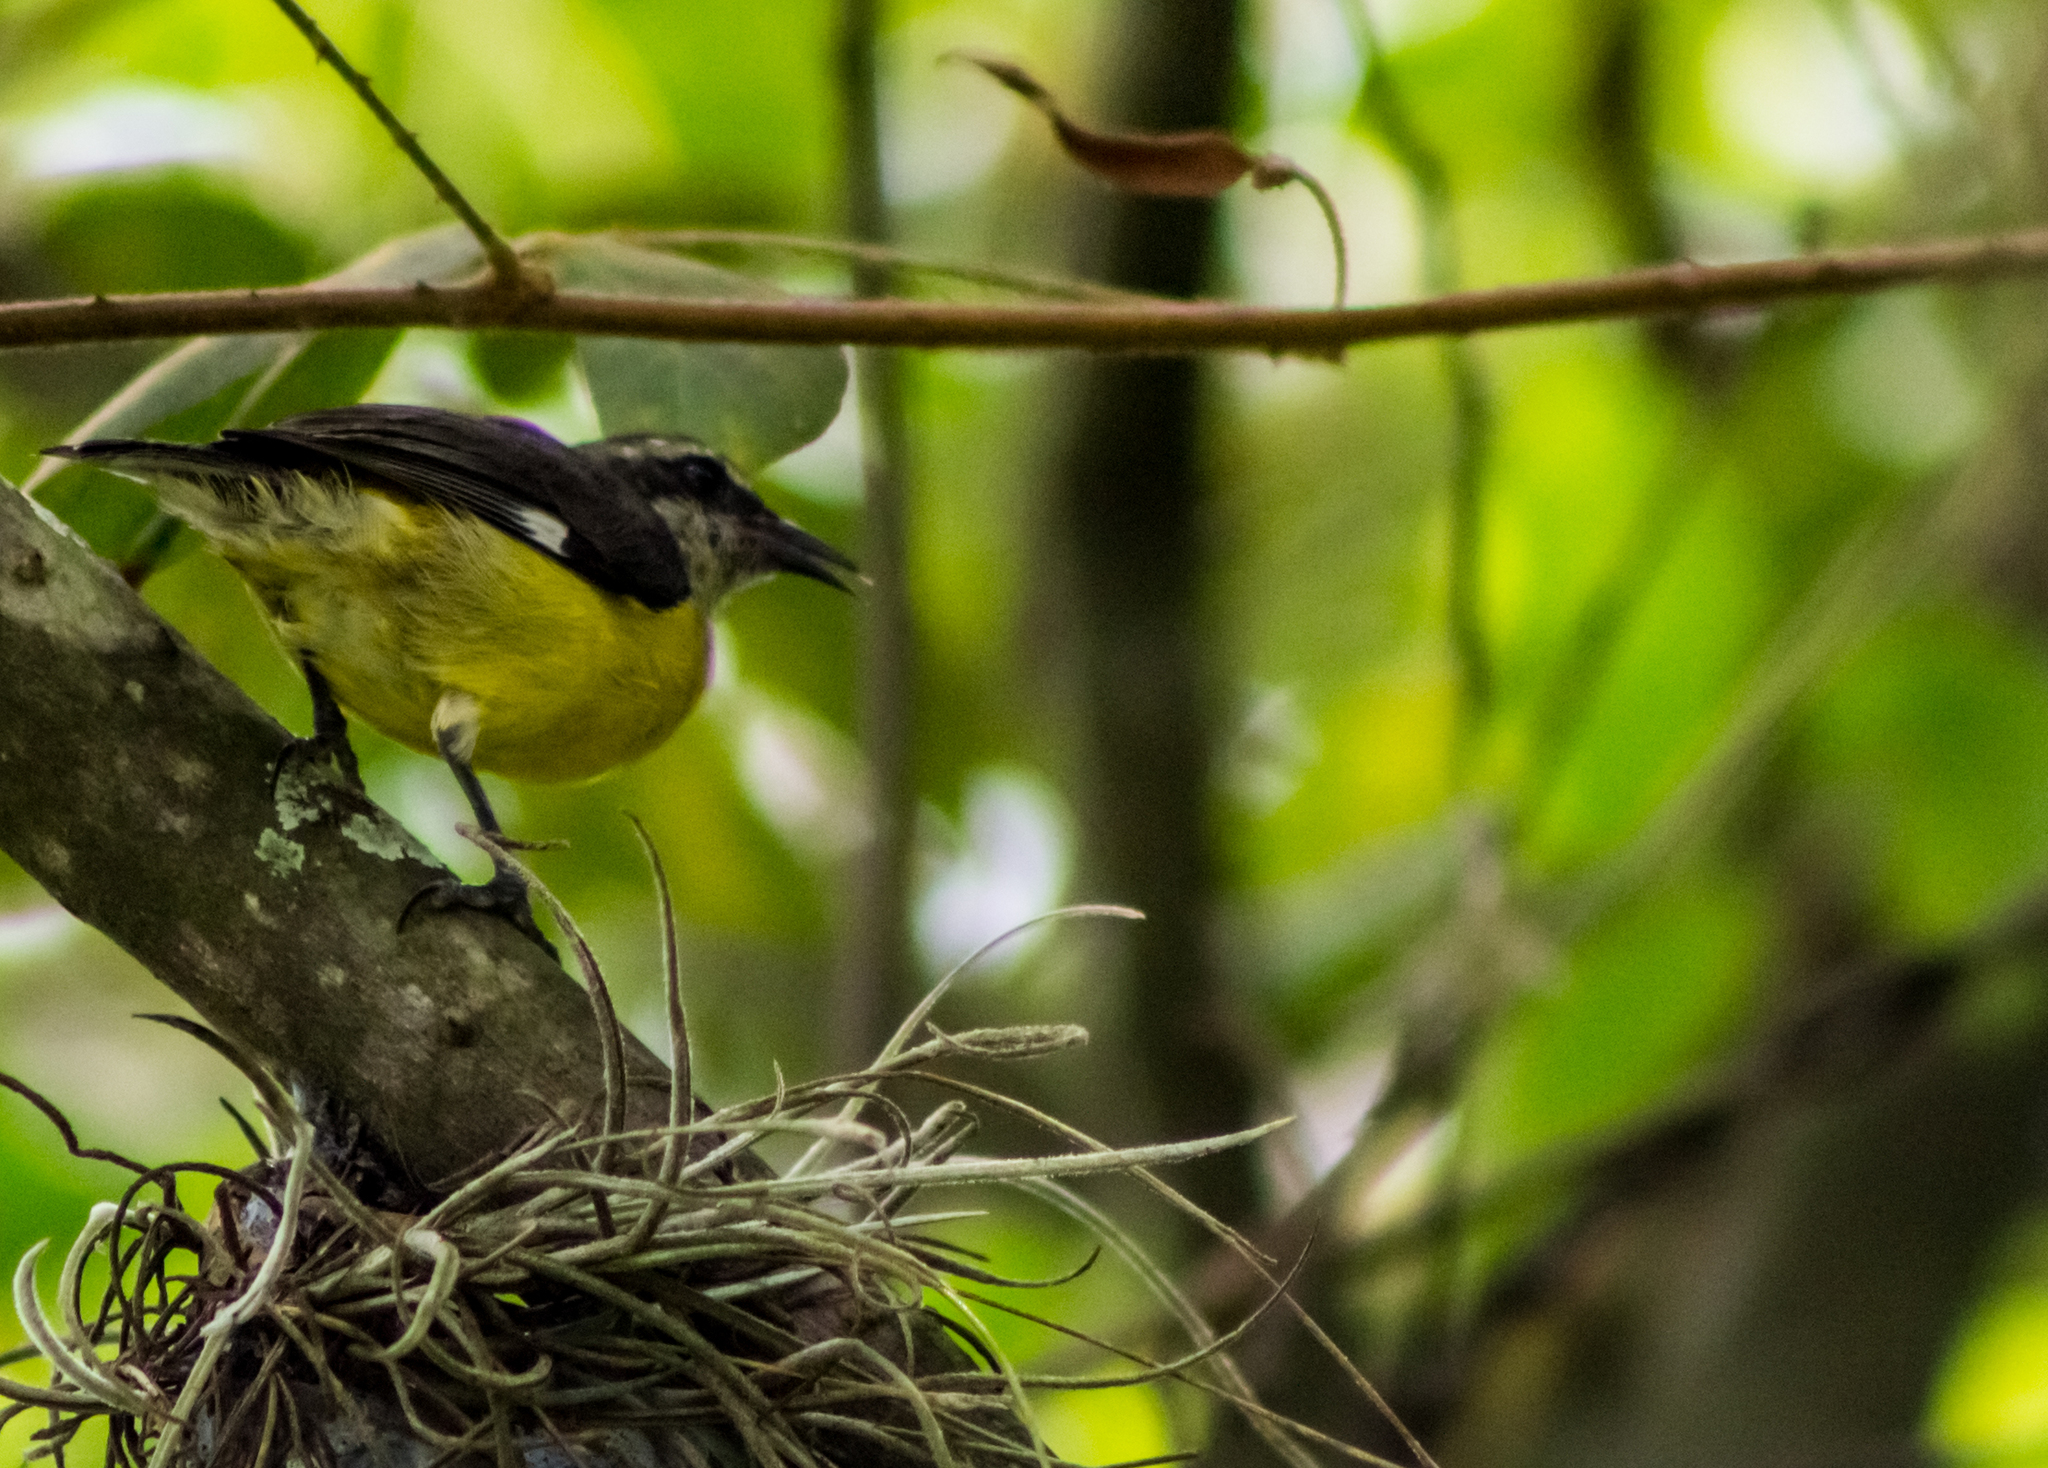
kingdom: Animalia
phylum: Chordata
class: Aves
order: Passeriformes
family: Thraupidae
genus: Coereba
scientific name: Coereba flaveola
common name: Bananaquit
